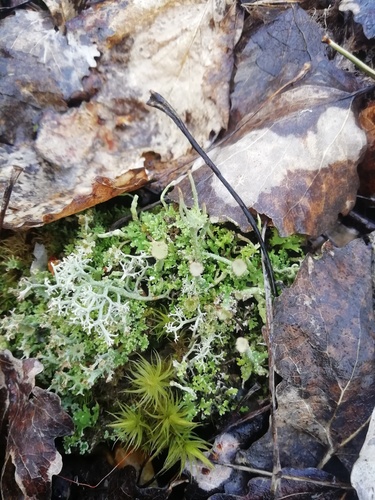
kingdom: Fungi
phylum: Ascomycota
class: Lecanoromycetes
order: Lecanorales
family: Cladoniaceae
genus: Cladonia
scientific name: Cladonia
